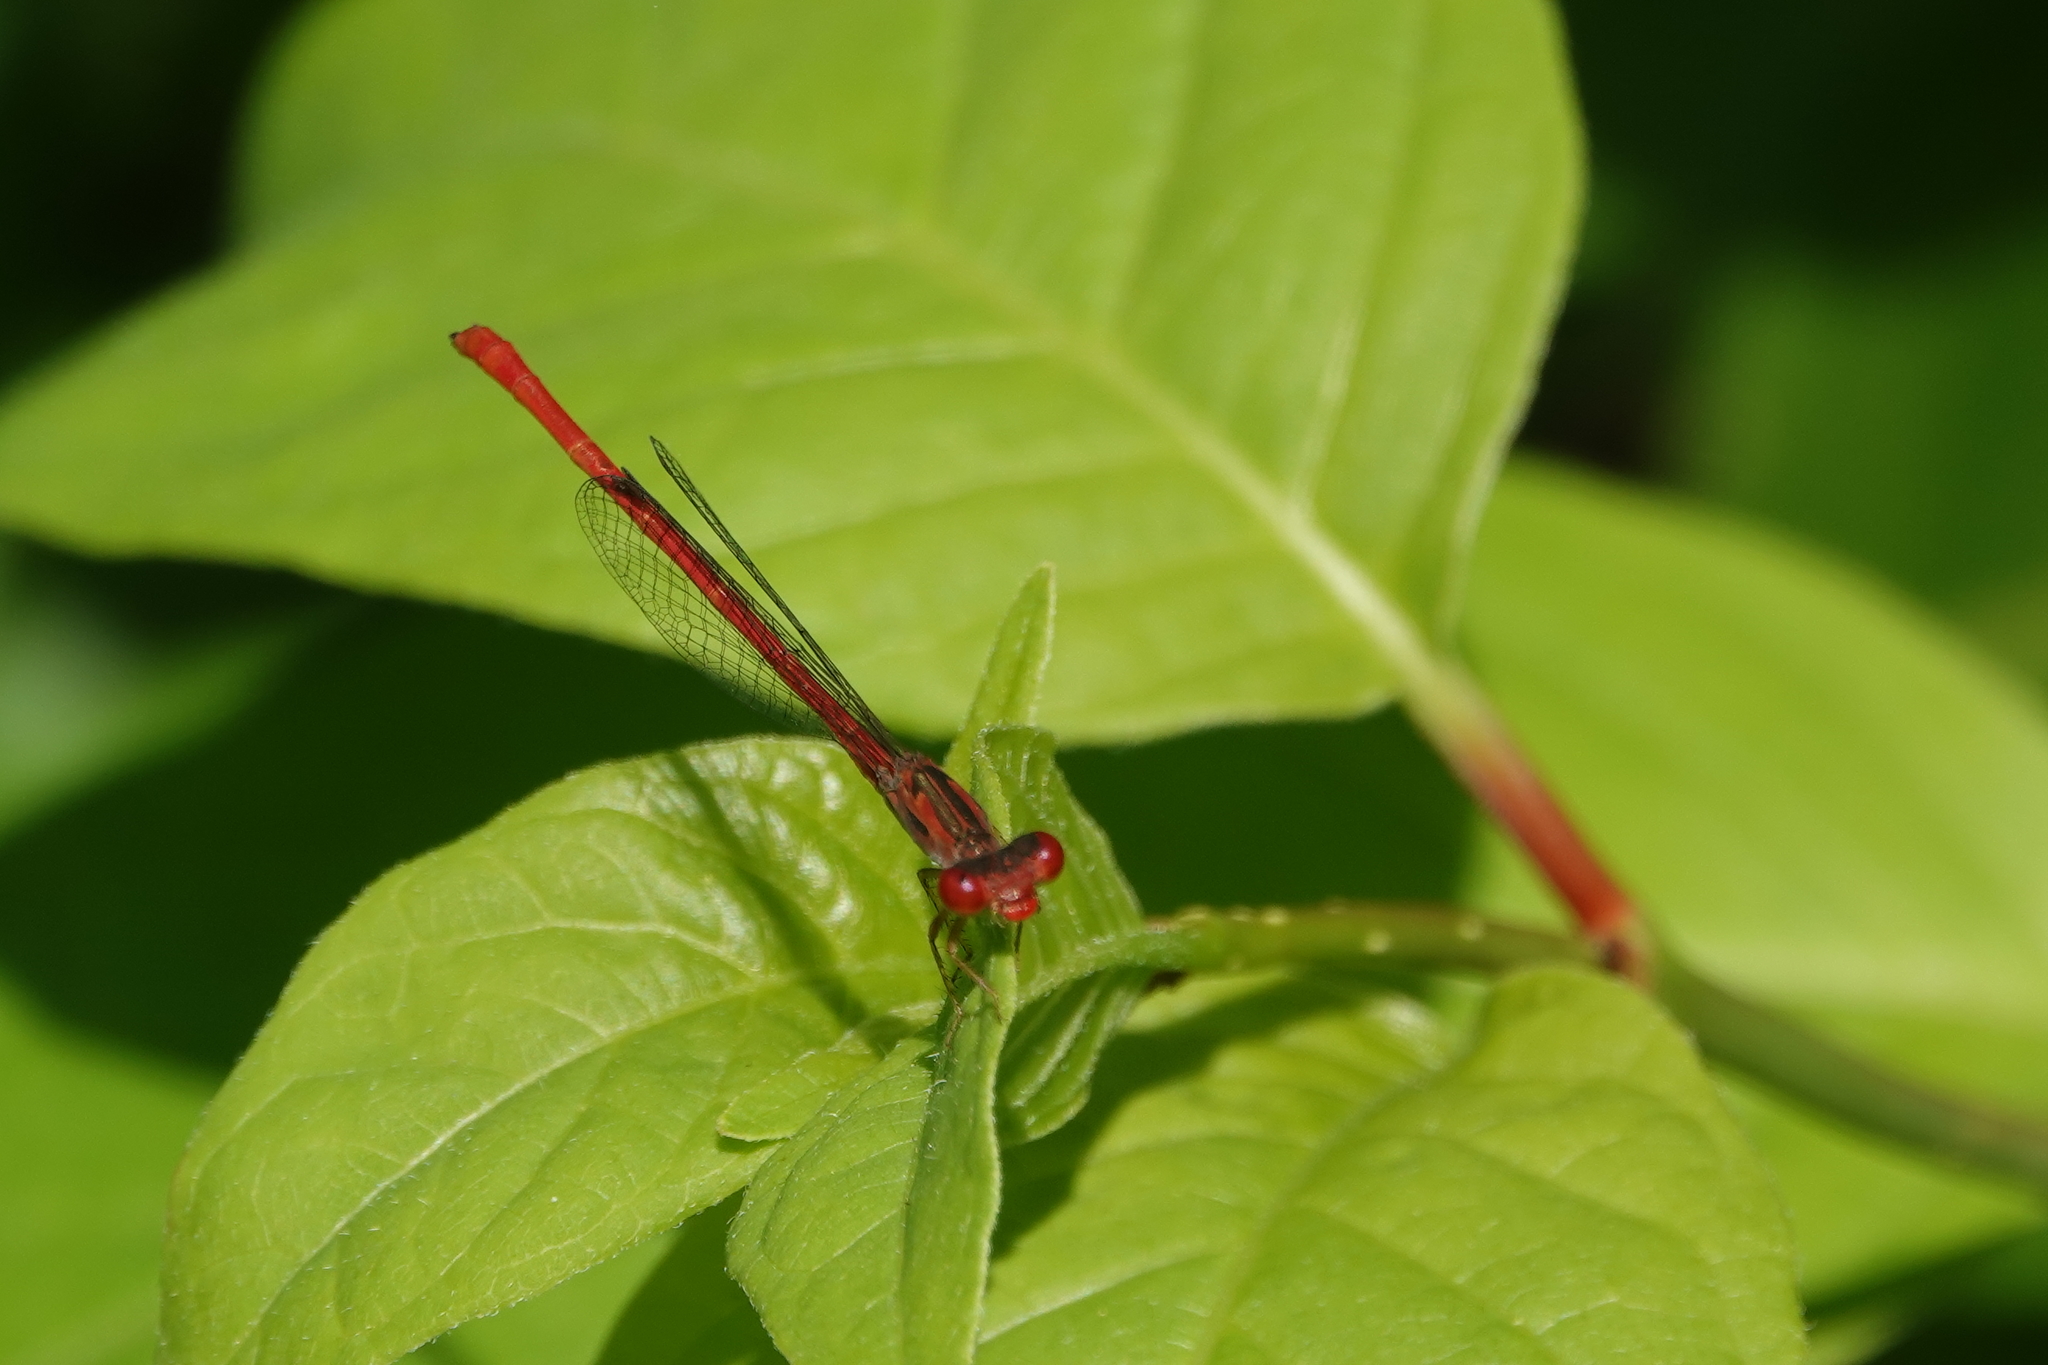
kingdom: Animalia
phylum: Arthropoda
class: Insecta
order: Odonata
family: Coenagrionidae
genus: Telebasis
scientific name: Telebasis byersi
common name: Duckweed firetail
